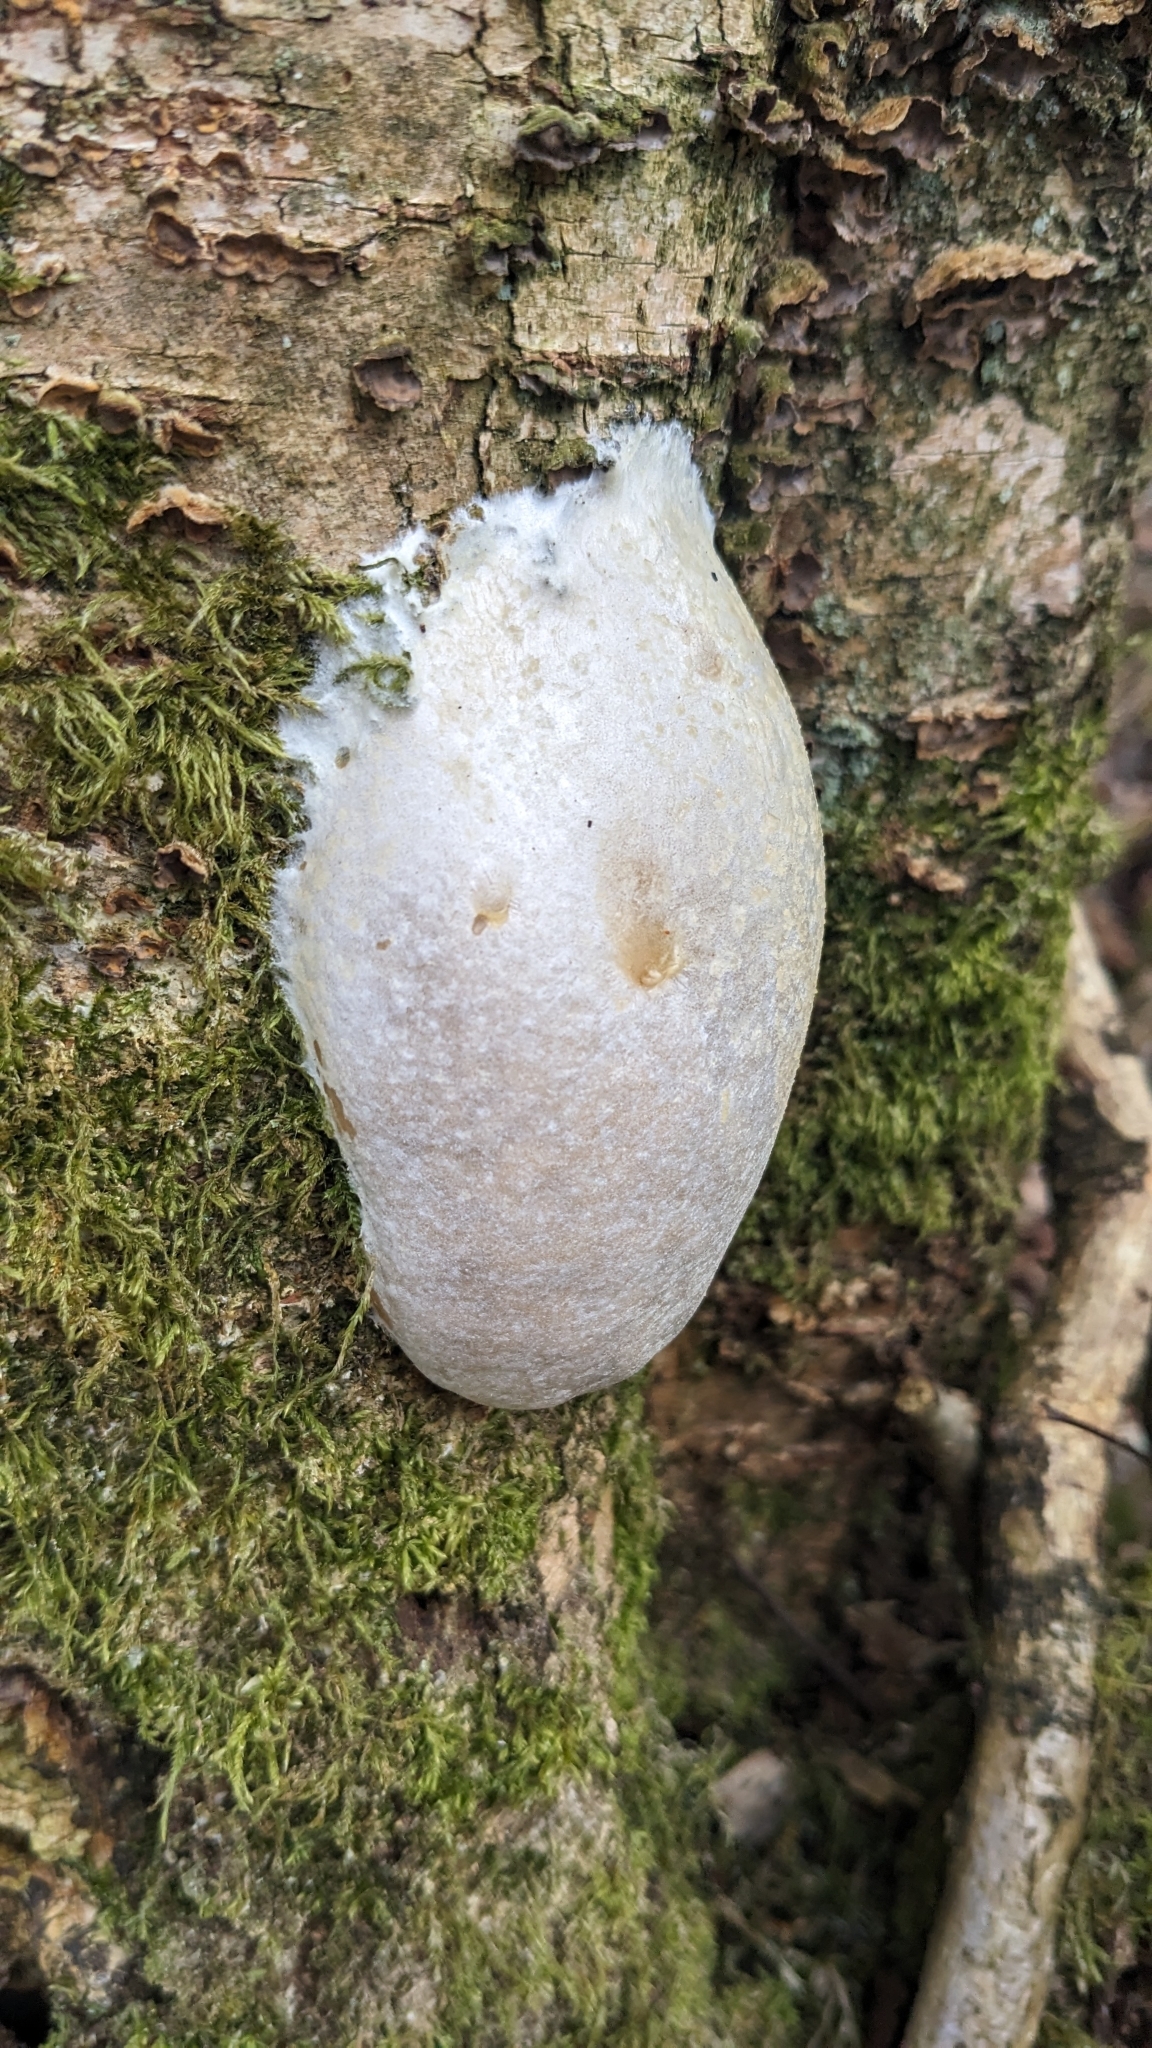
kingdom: Protozoa
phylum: Mycetozoa
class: Myxomycetes
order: Cribrariales
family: Tubiferaceae
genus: Reticularia
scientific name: Reticularia lycoperdon
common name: False puffball
